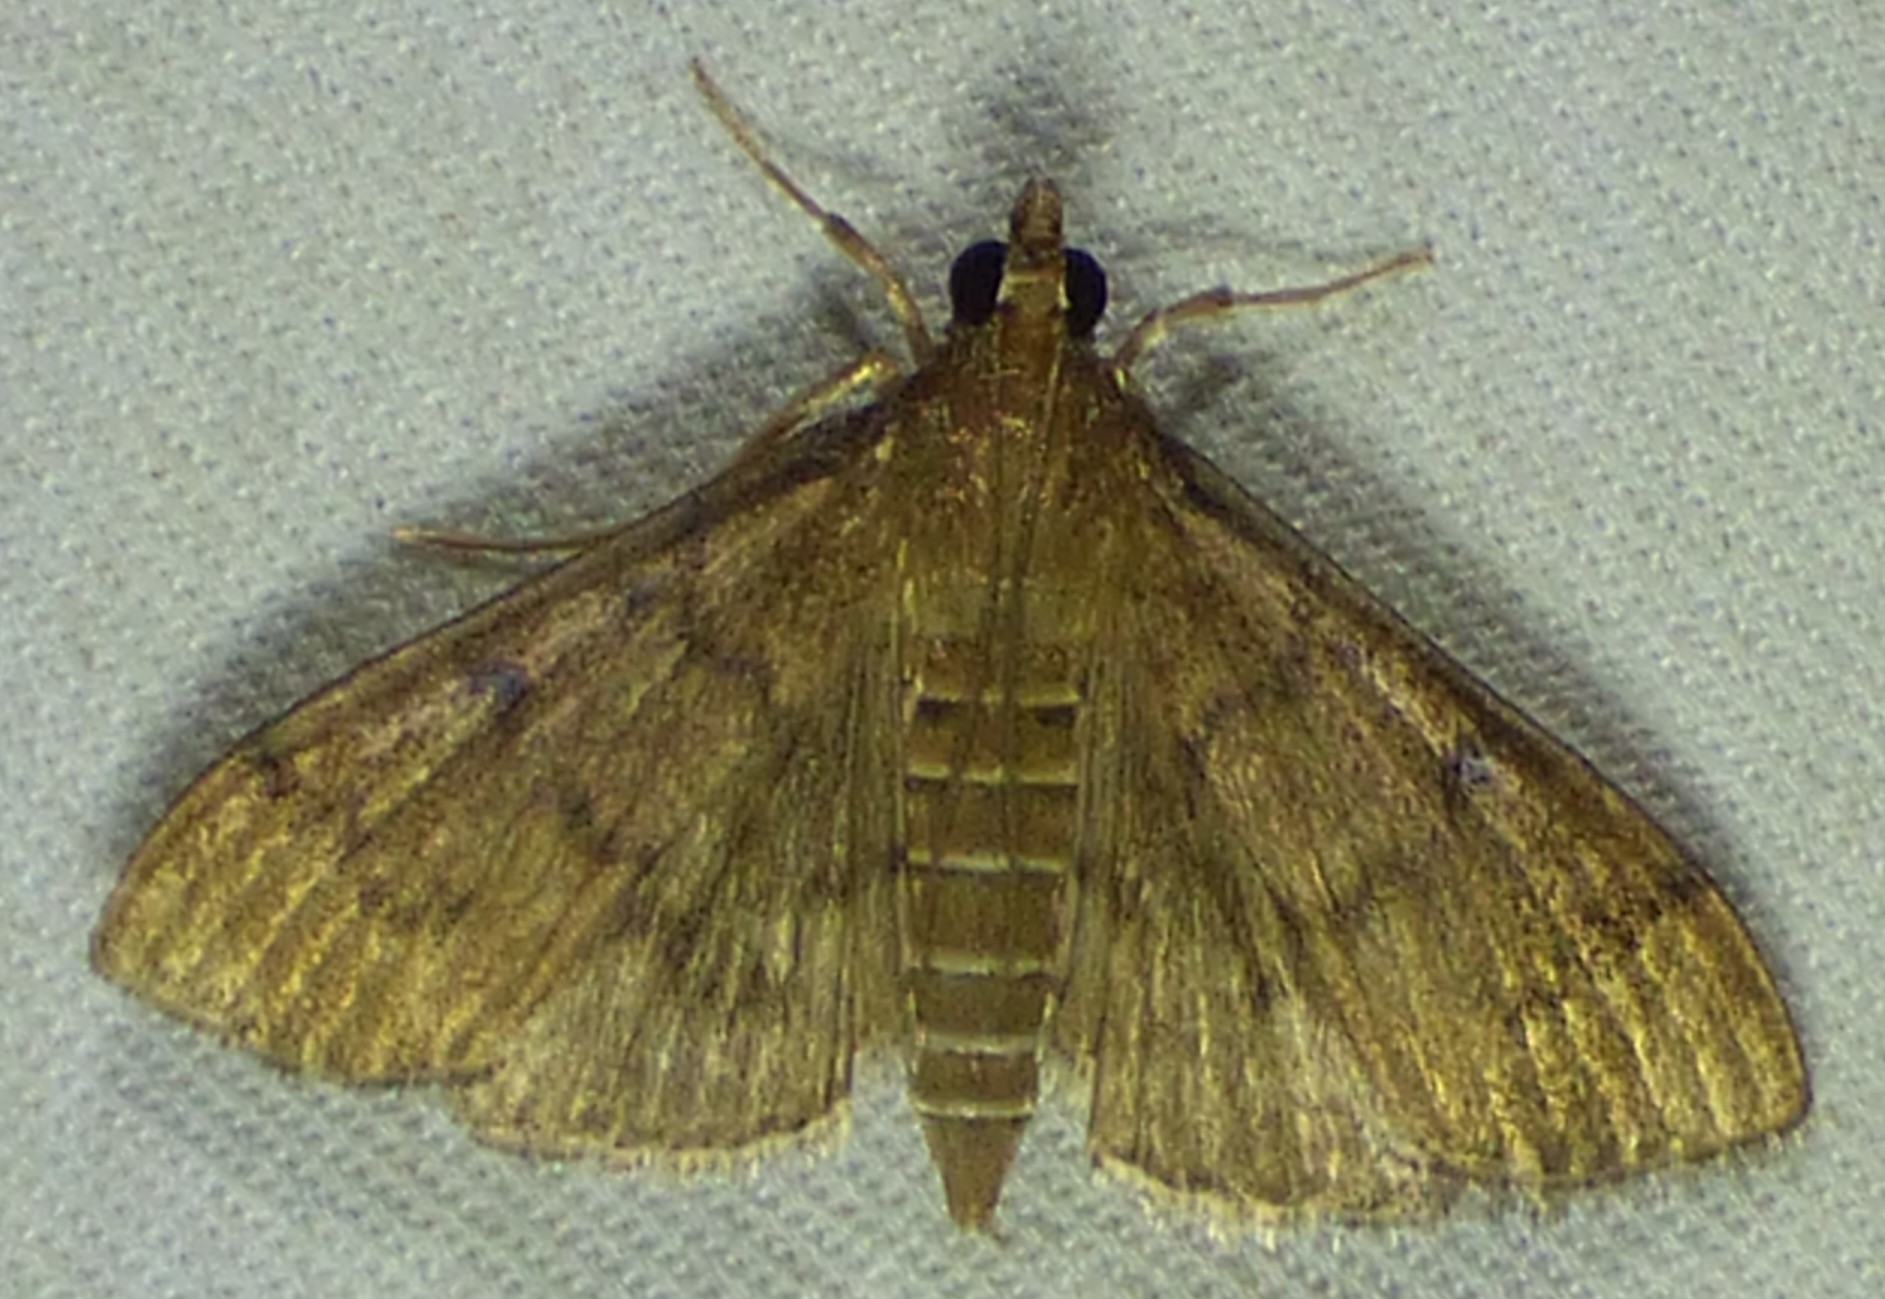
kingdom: Animalia
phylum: Arthropoda
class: Insecta
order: Lepidoptera
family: Crambidae
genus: Herpetogramma
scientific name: Herpetogramma phaeopteralis
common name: Dusky herpetogramma moth
